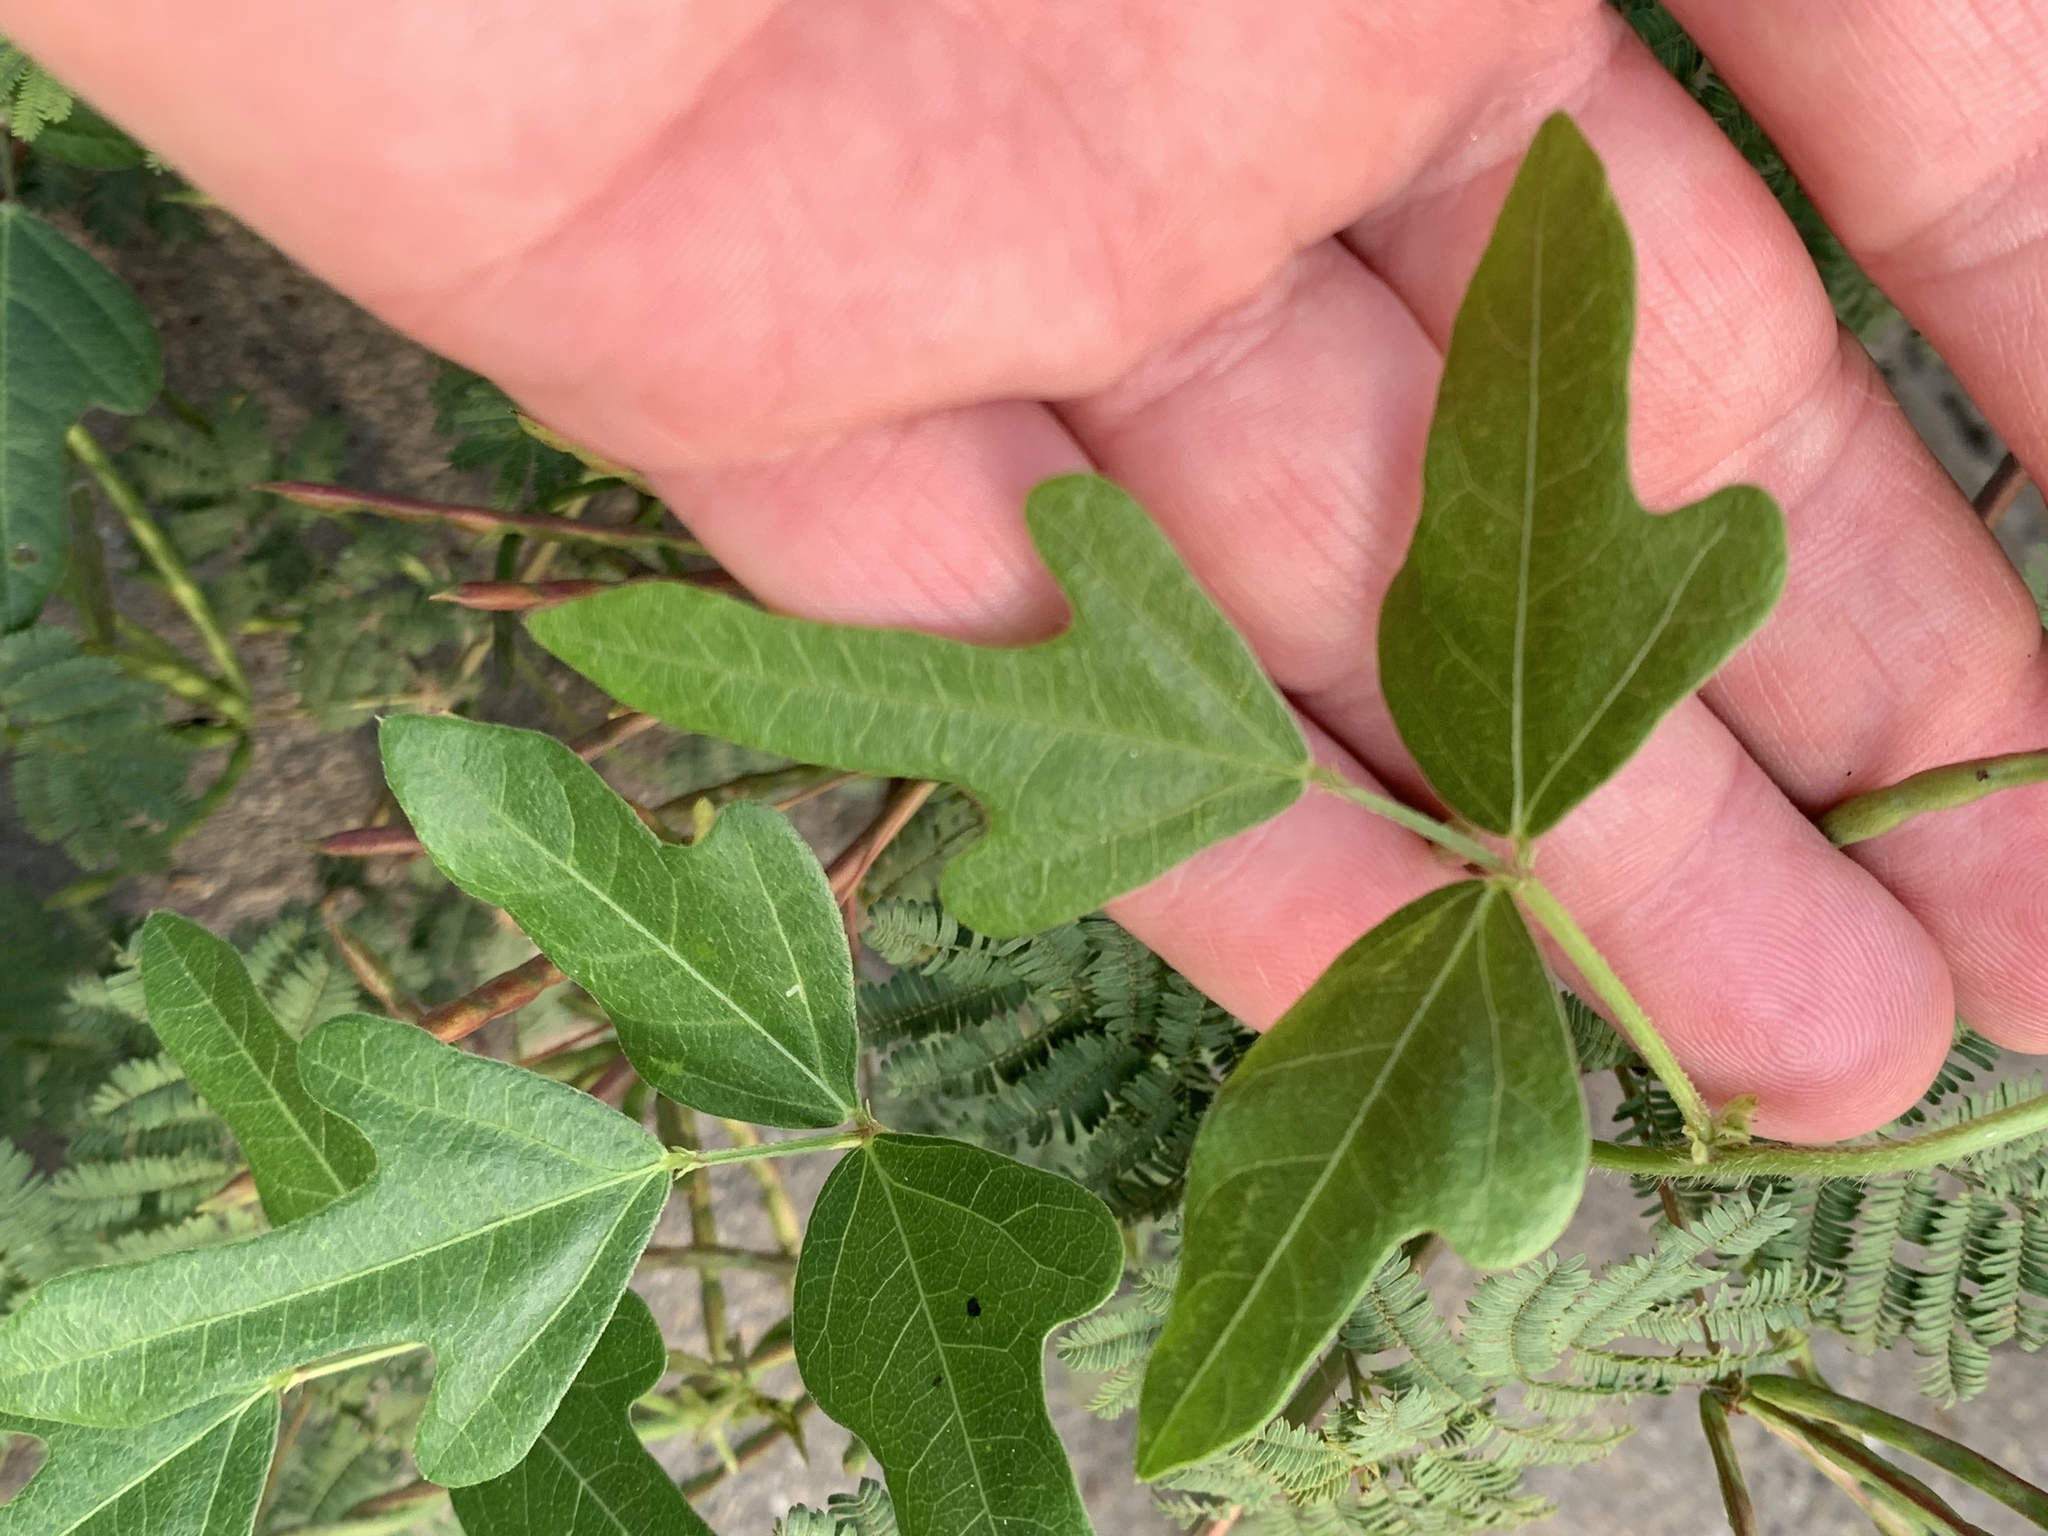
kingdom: Plantae
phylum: Tracheophyta
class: Magnoliopsida
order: Fabales
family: Fabaceae
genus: Strophostyles
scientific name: Strophostyles helvola
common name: Trailing wild bean
